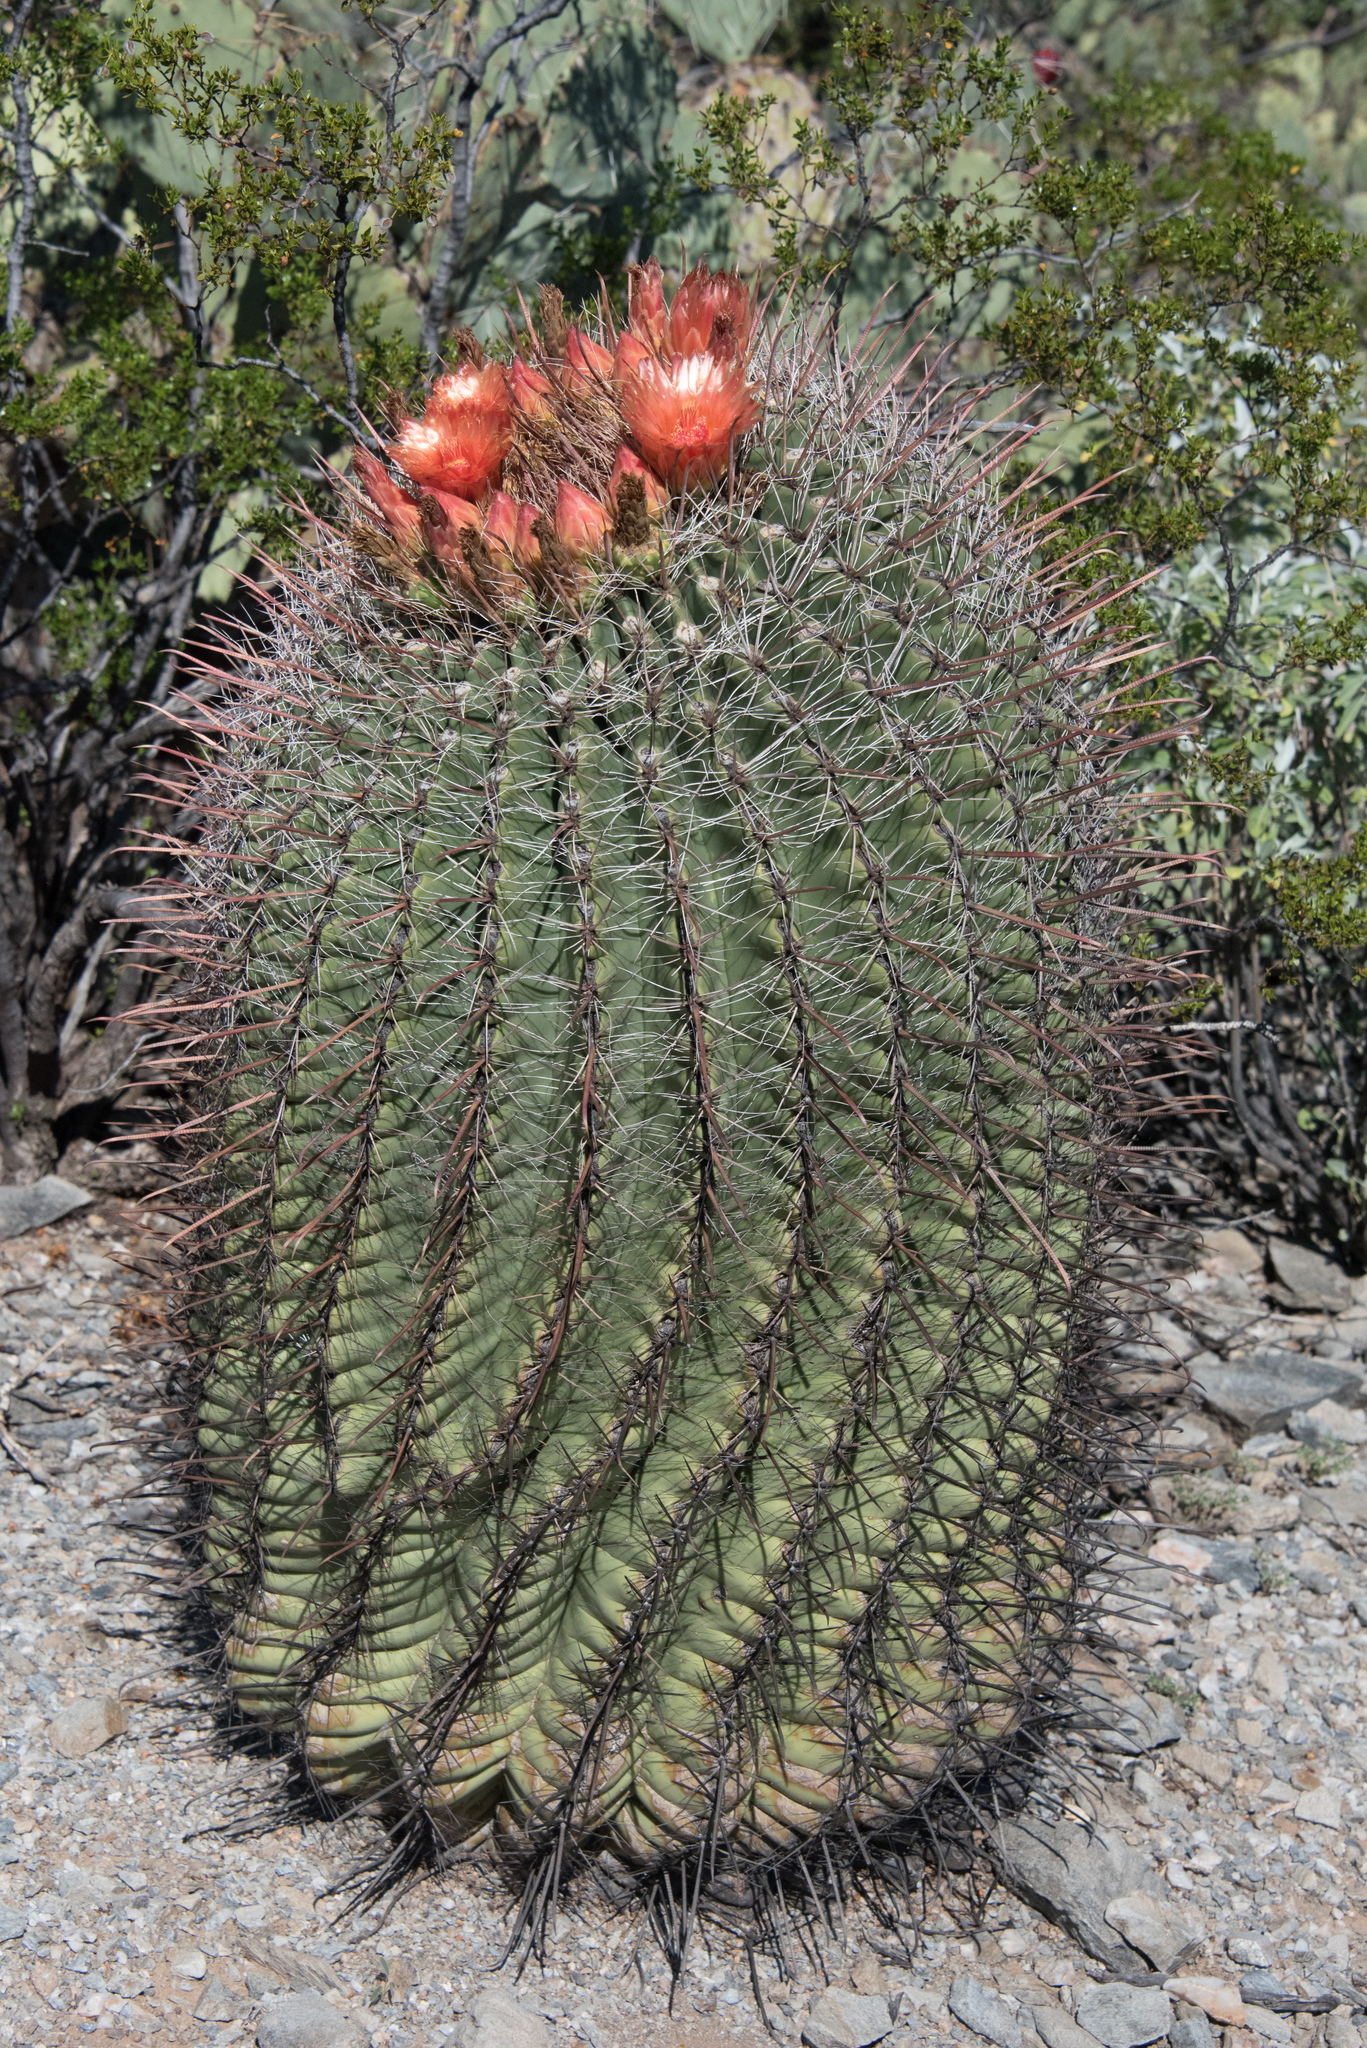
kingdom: Plantae
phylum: Tracheophyta
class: Magnoliopsida
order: Caryophyllales
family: Cactaceae
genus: Ferocactus
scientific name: Ferocactus wislizeni
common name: Candy barrel cactus
